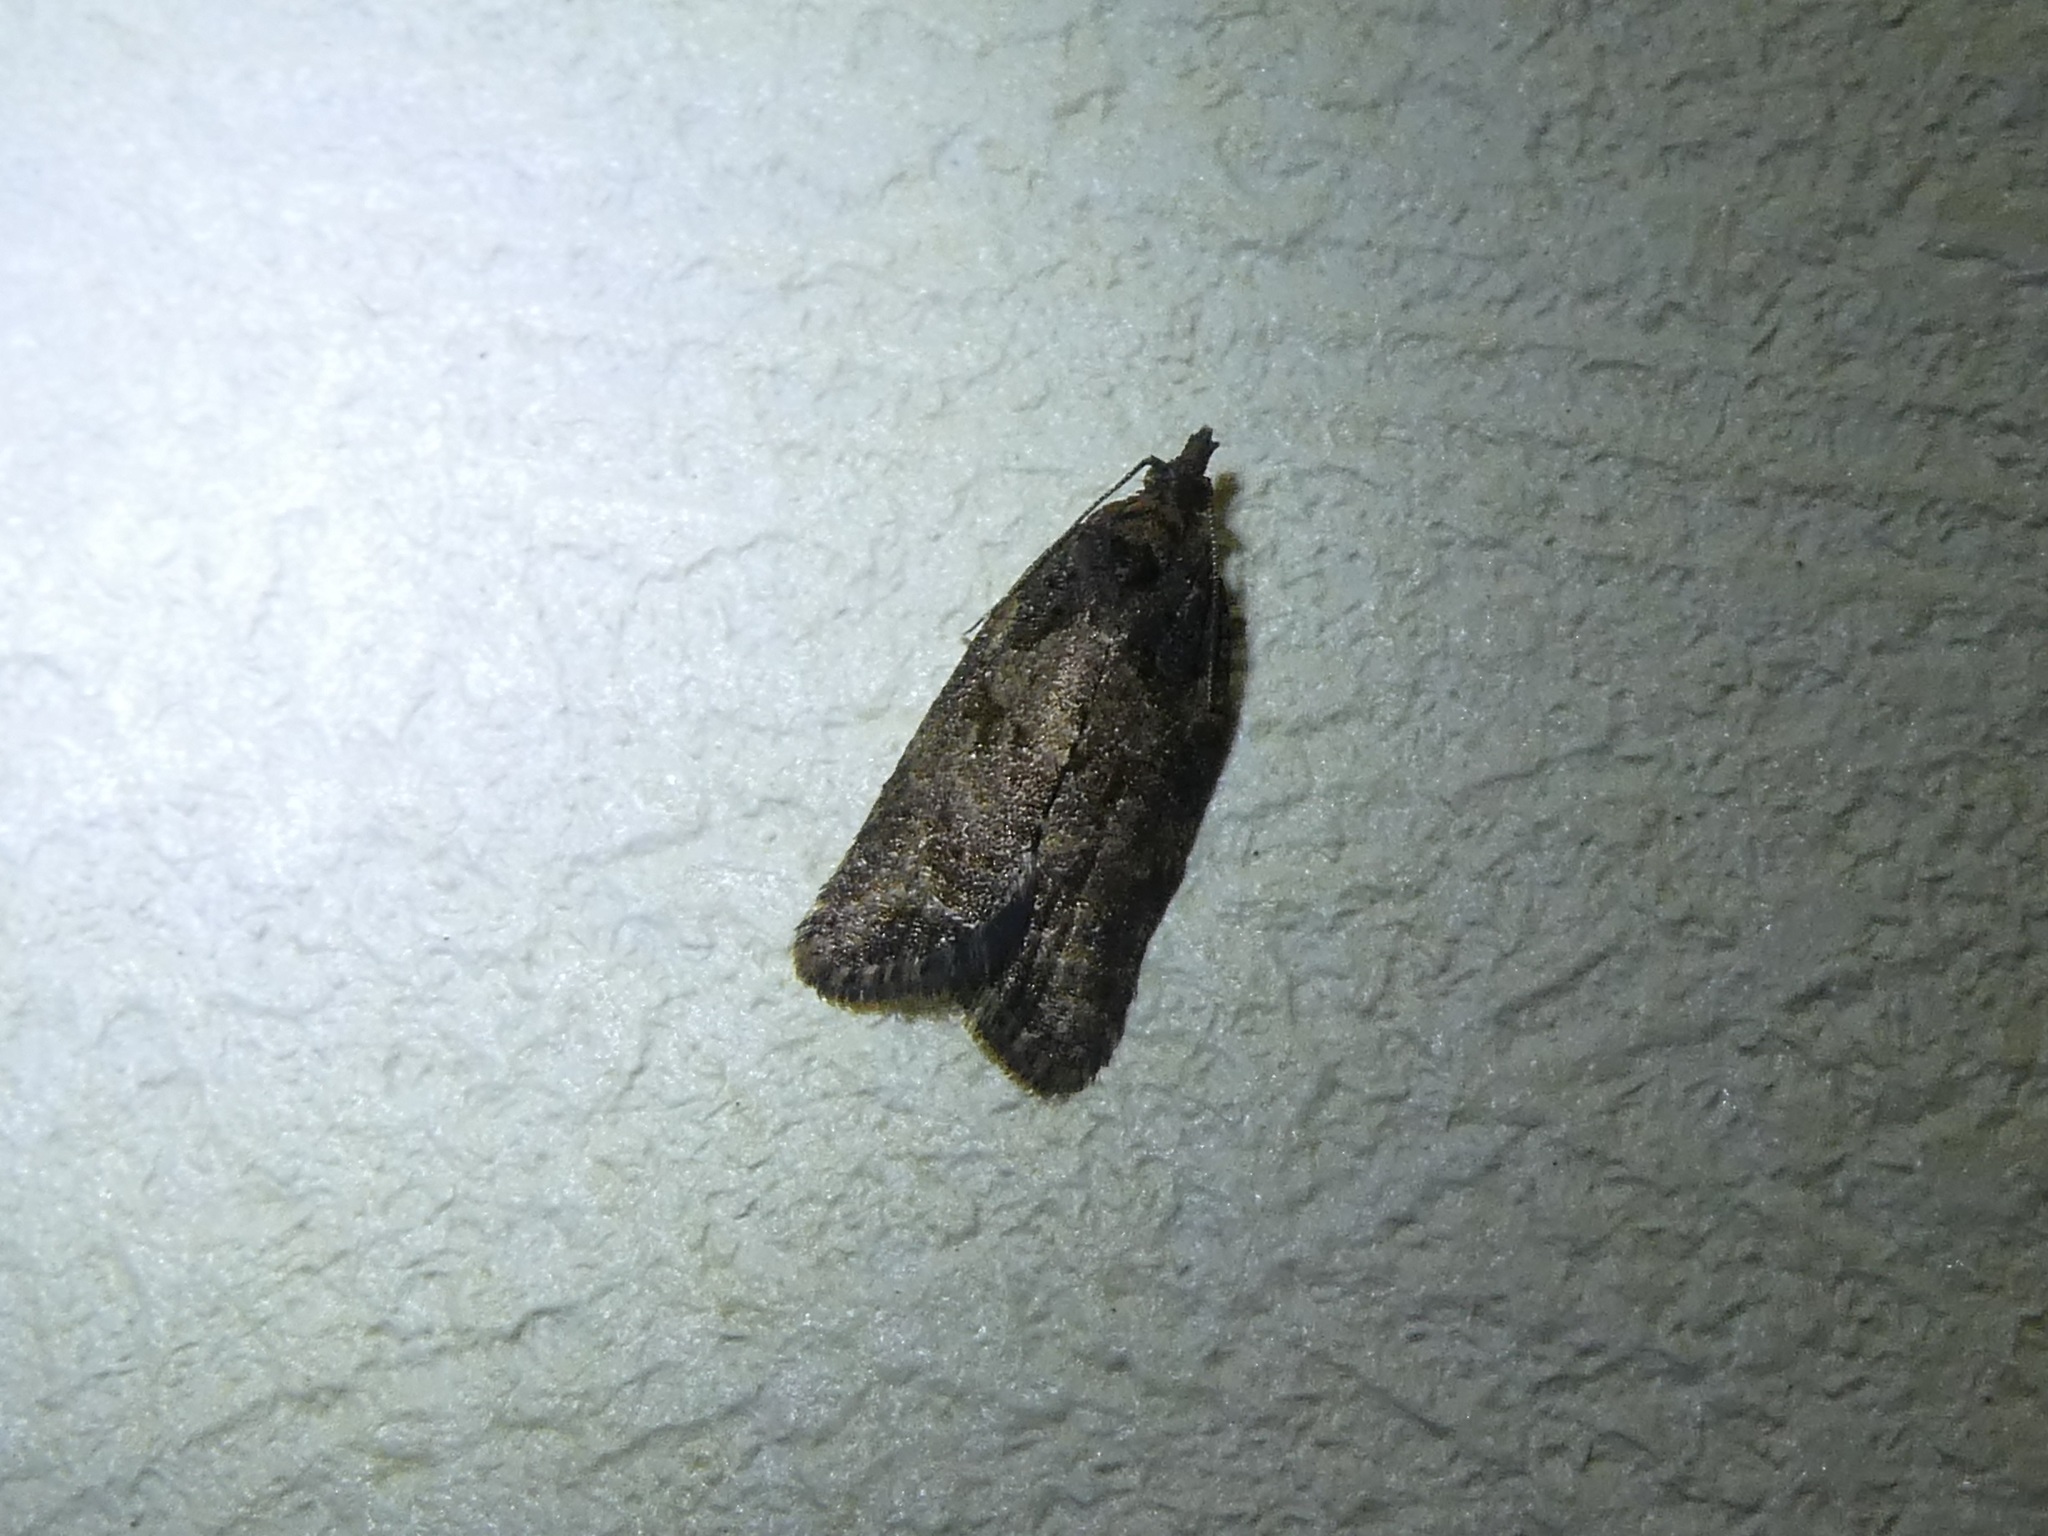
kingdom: Animalia
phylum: Arthropoda
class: Insecta
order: Lepidoptera
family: Tortricidae
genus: Capua
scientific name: Capua intractana
